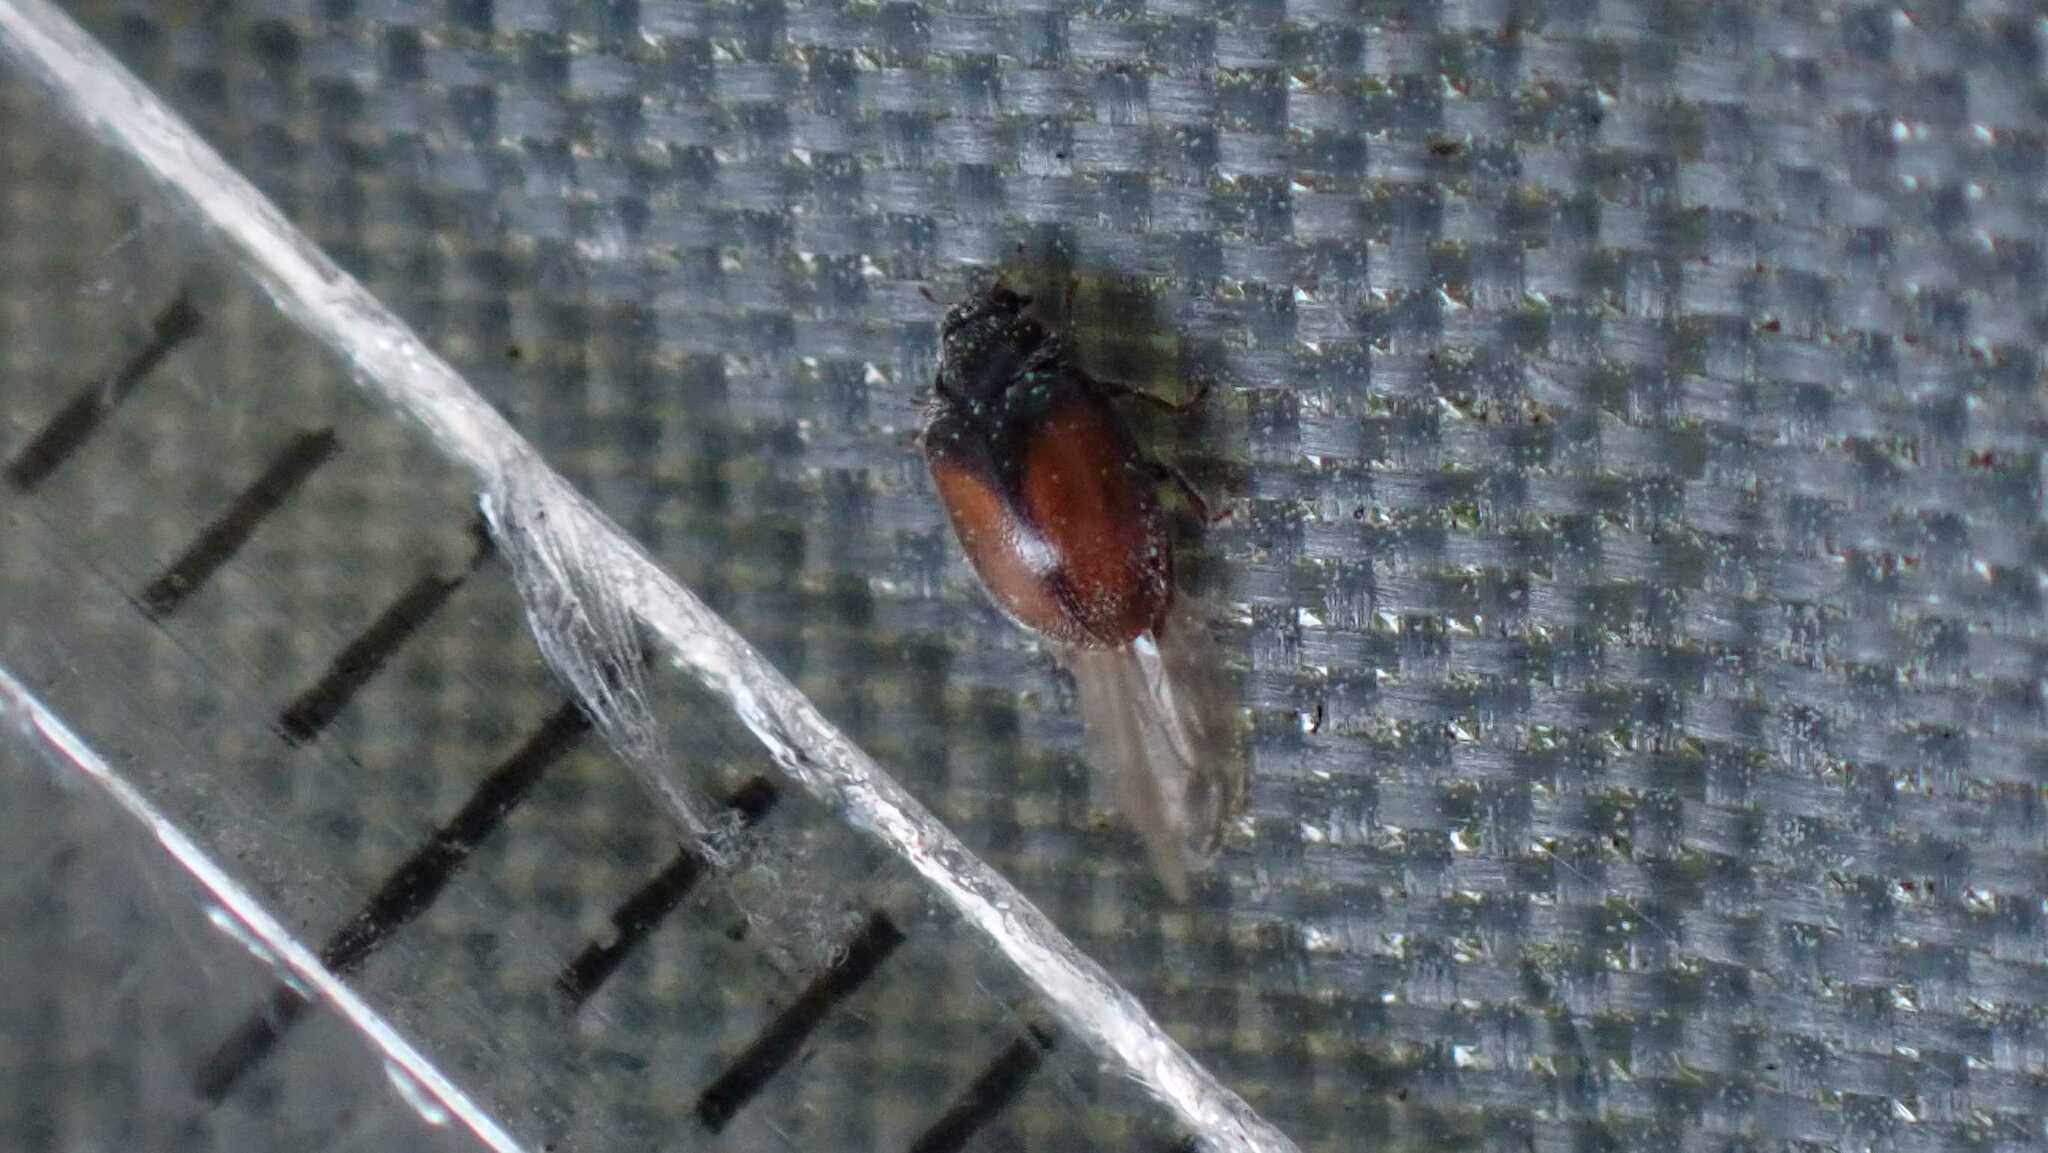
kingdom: Animalia
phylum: Arthropoda
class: Insecta
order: Coleoptera
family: Coccinellidae
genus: Scymnus
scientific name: Scymnus suturalis
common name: Ladybird beetle
